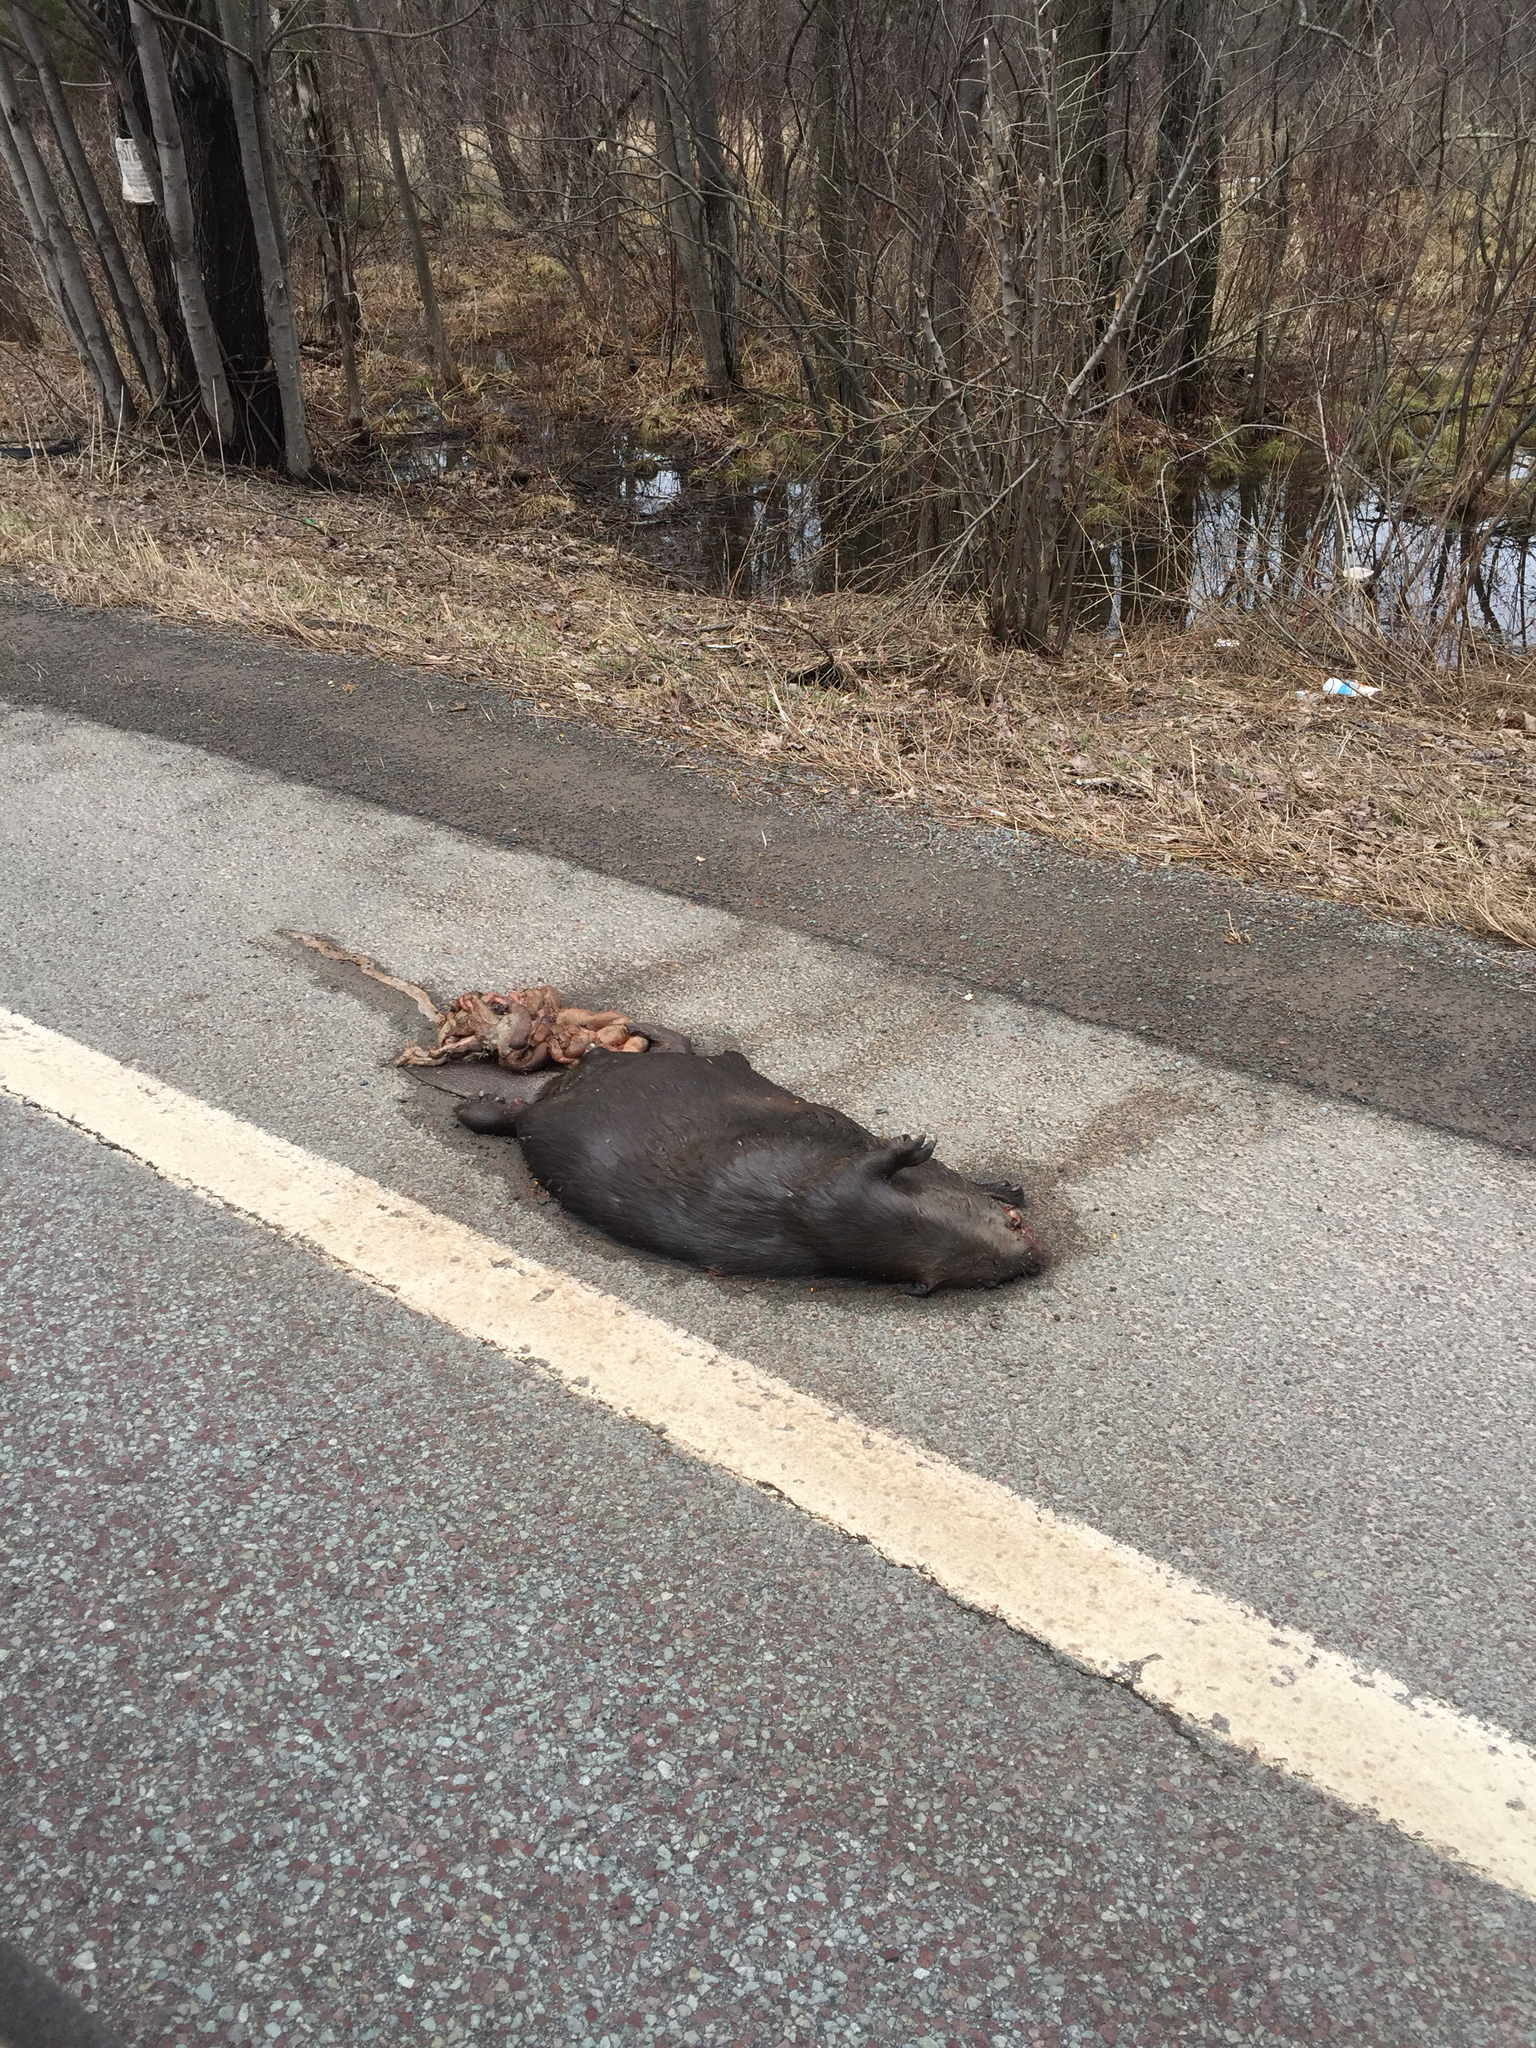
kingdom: Animalia
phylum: Chordata
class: Mammalia
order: Rodentia
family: Castoridae
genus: Castor
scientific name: Castor canadensis
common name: American beaver
